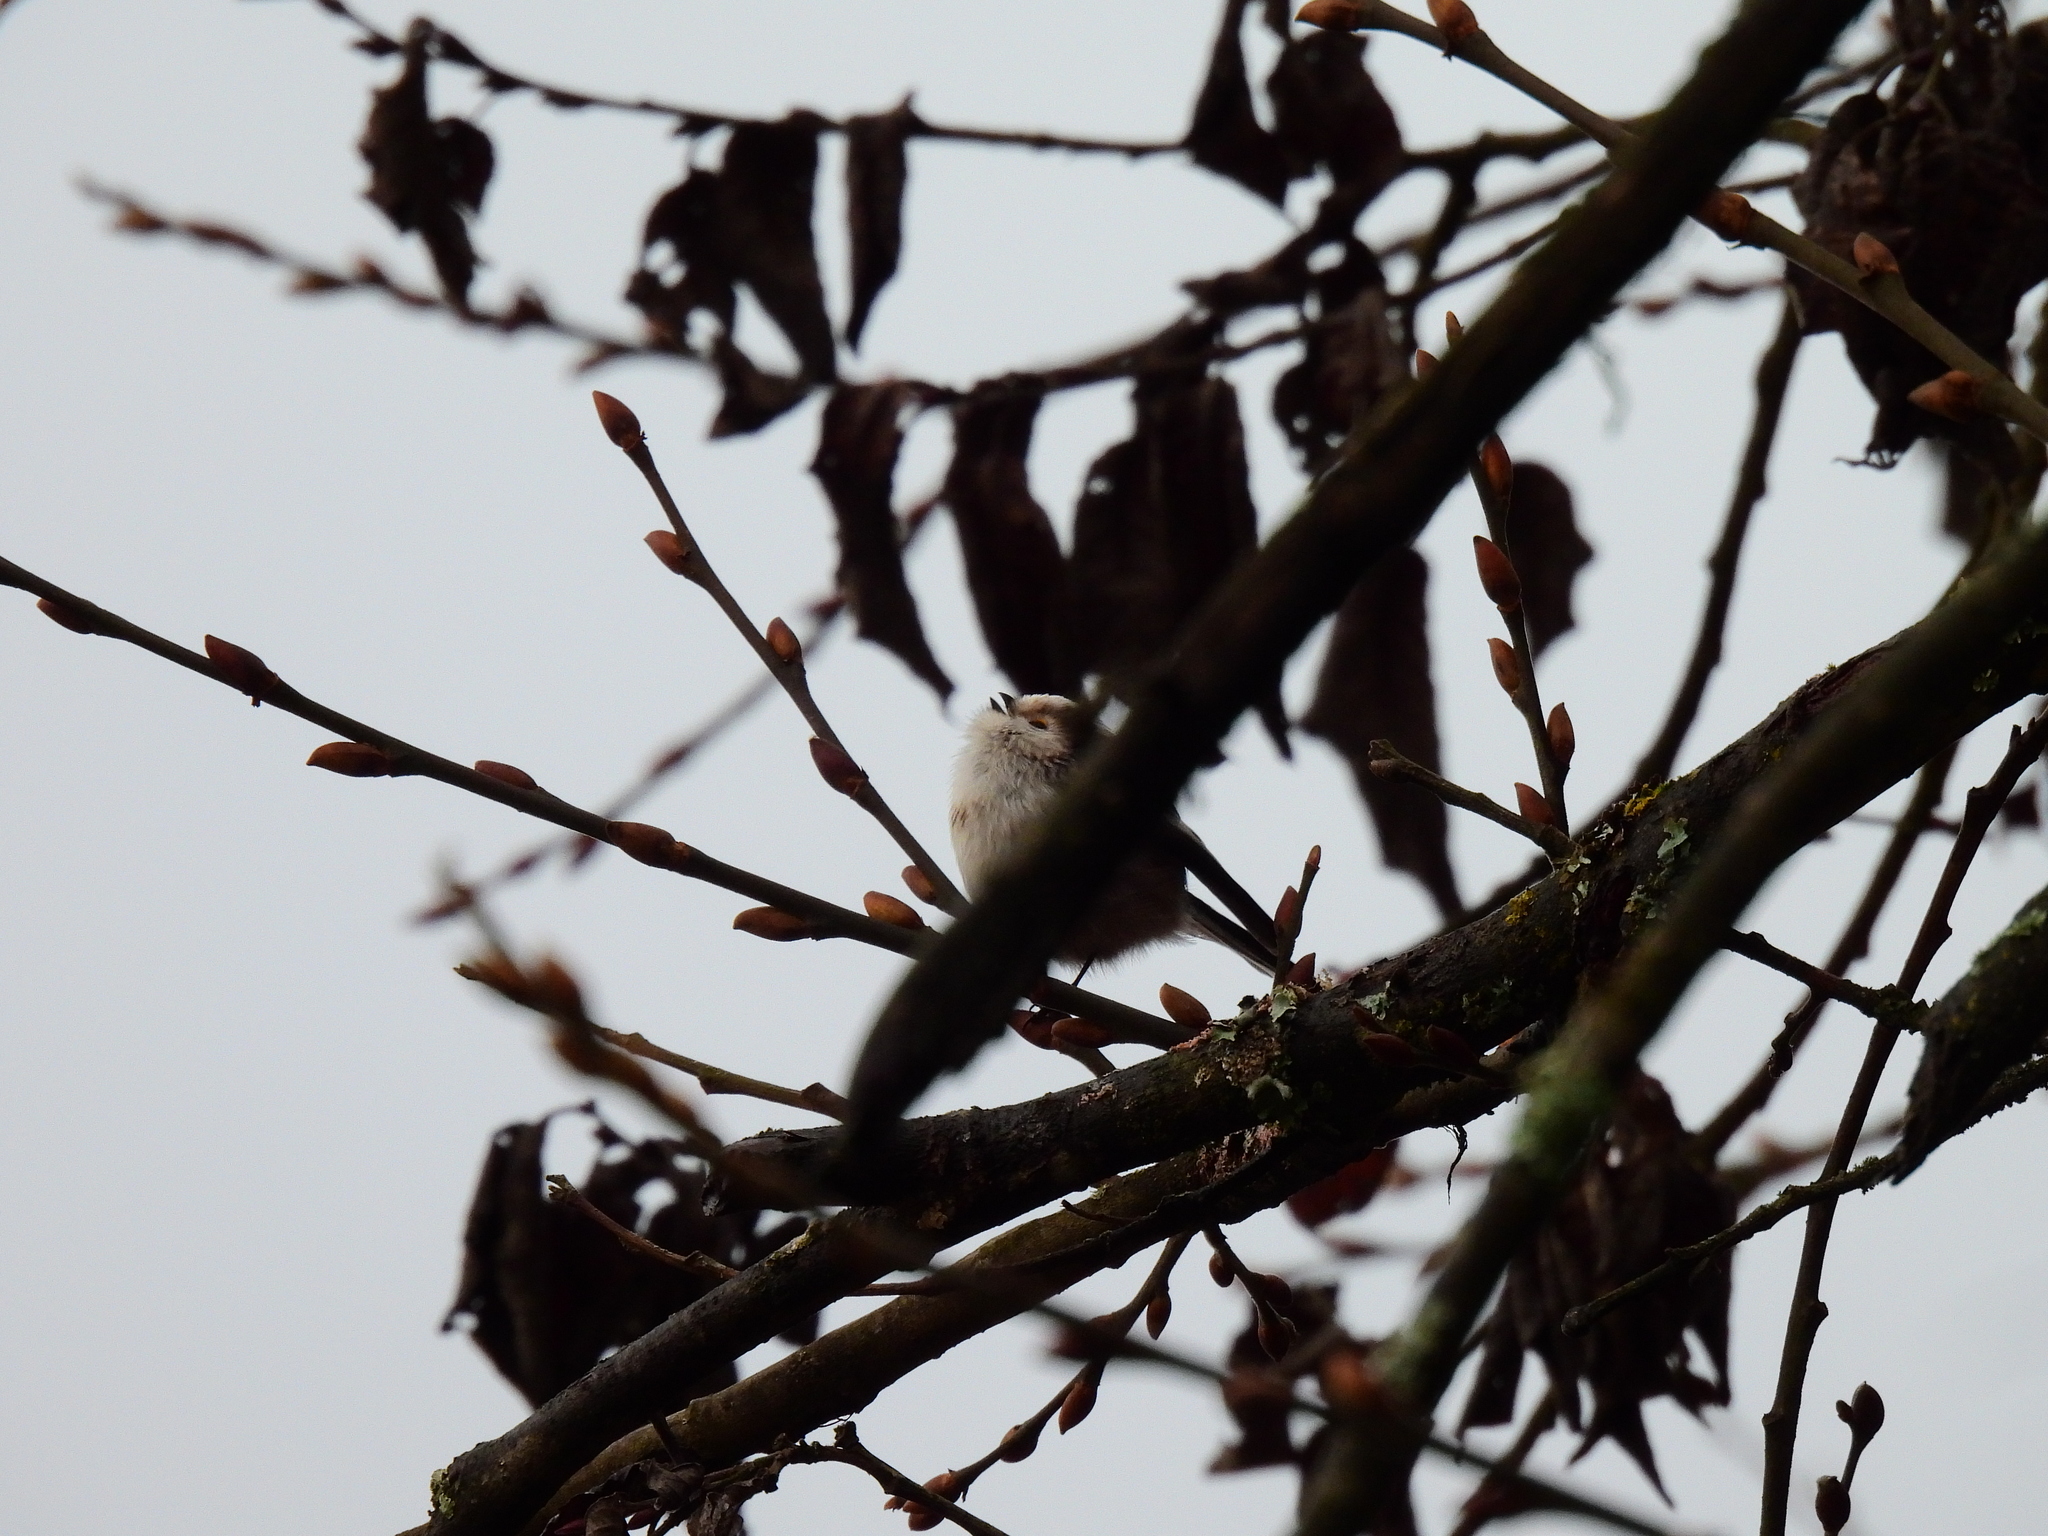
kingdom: Animalia
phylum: Chordata
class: Aves
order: Passeriformes
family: Aegithalidae
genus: Aegithalos
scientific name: Aegithalos caudatus
